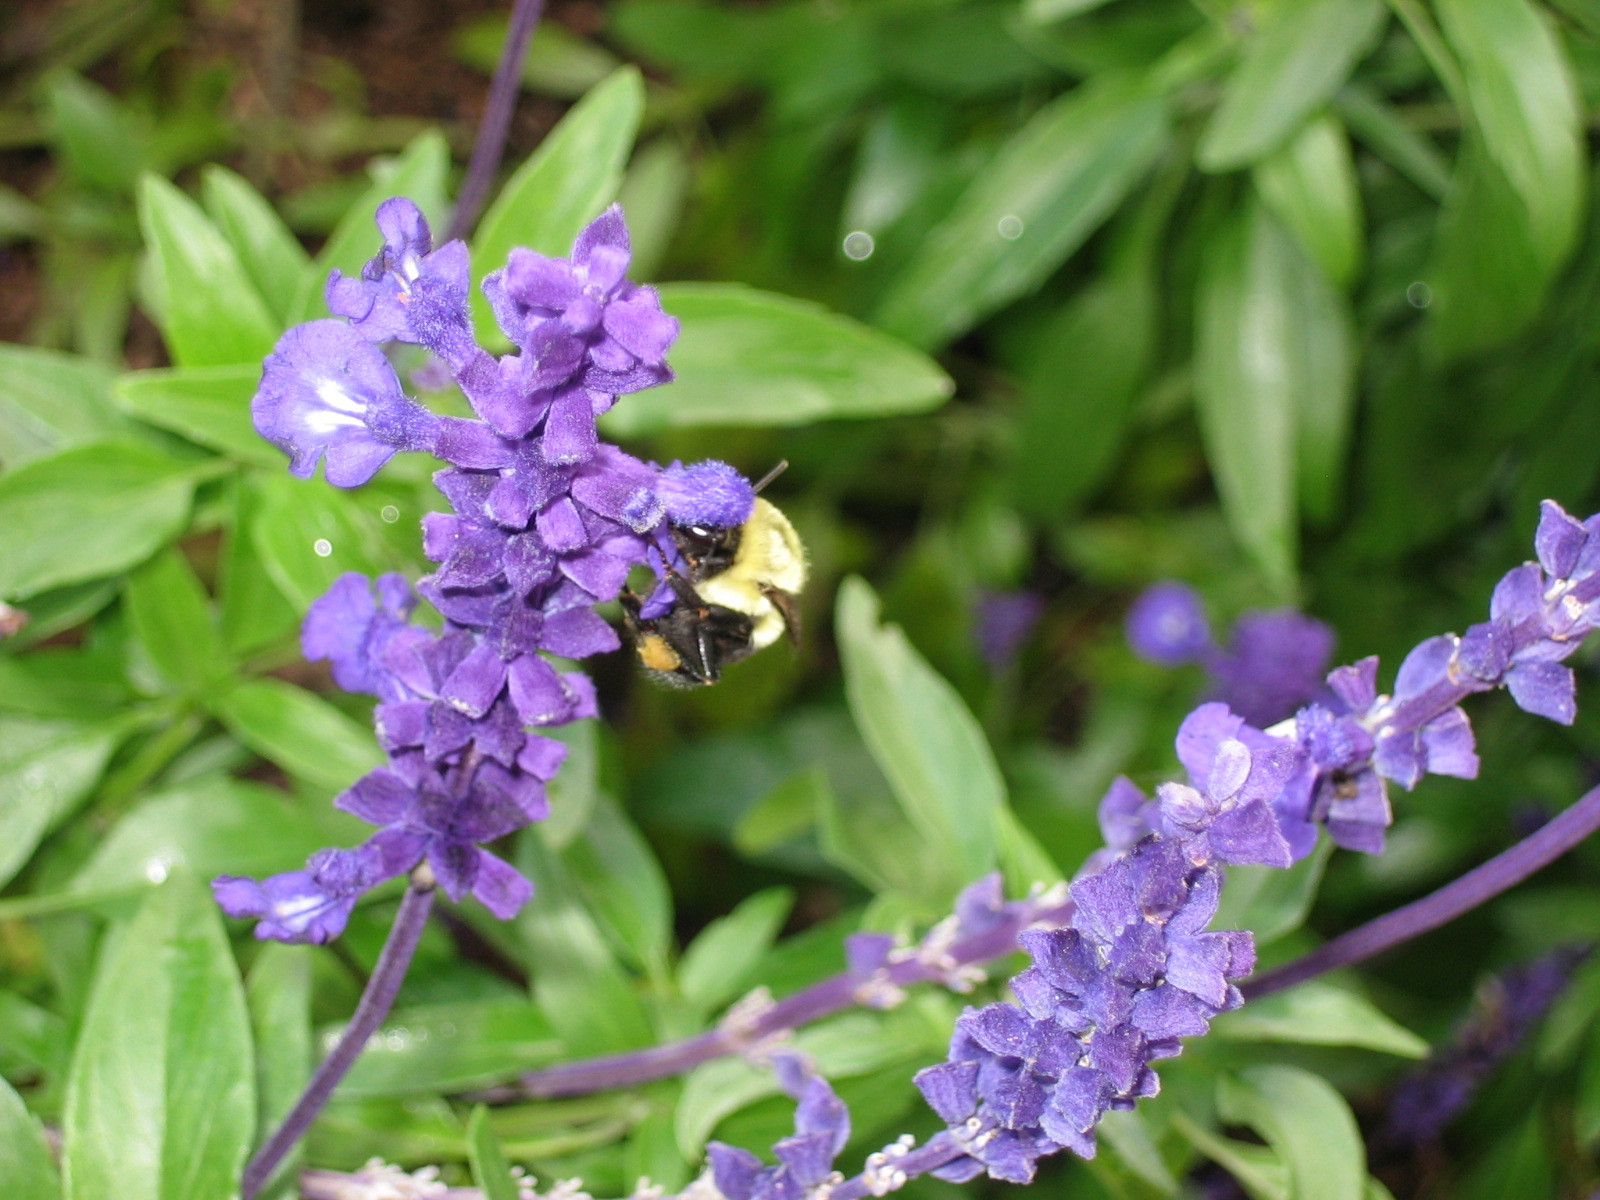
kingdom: Animalia
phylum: Arthropoda
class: Insecta
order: Hymenoptera
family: Apidae
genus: Bombus
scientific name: Bombus impatiens
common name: Common eastern bumble bee
